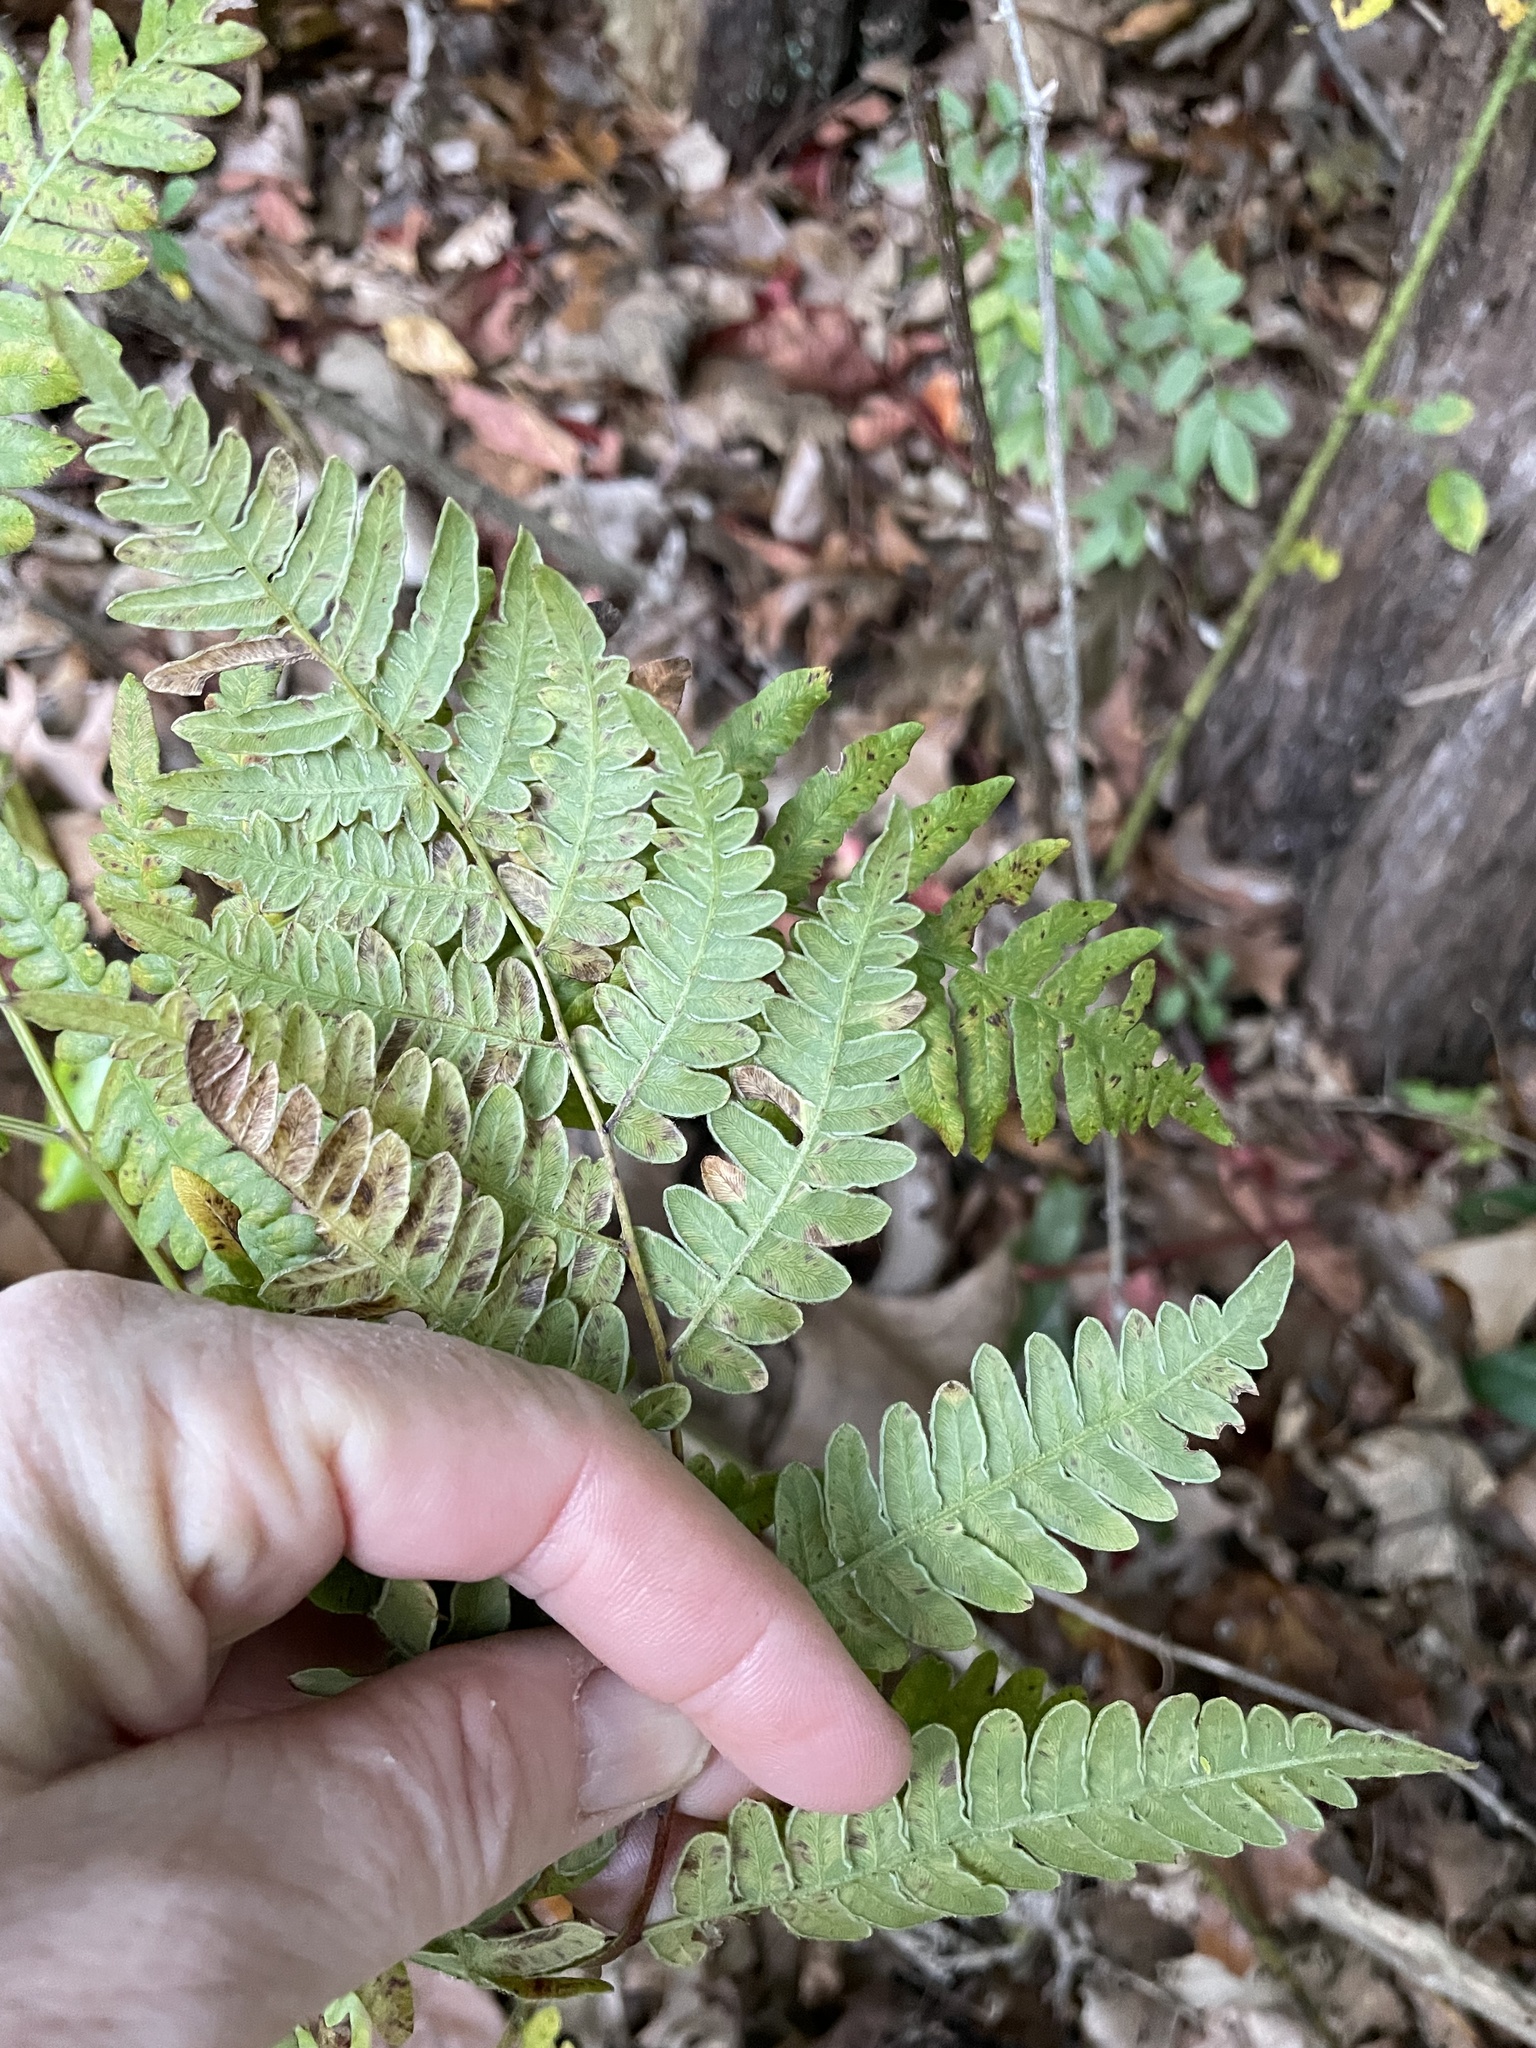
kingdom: Plantae
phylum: Tracheophyta
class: Polypodiopsida
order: Polypodiales
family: Dennstaedtiaceae
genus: Pteridium
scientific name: Pteridium aquilinum
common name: Bracken
